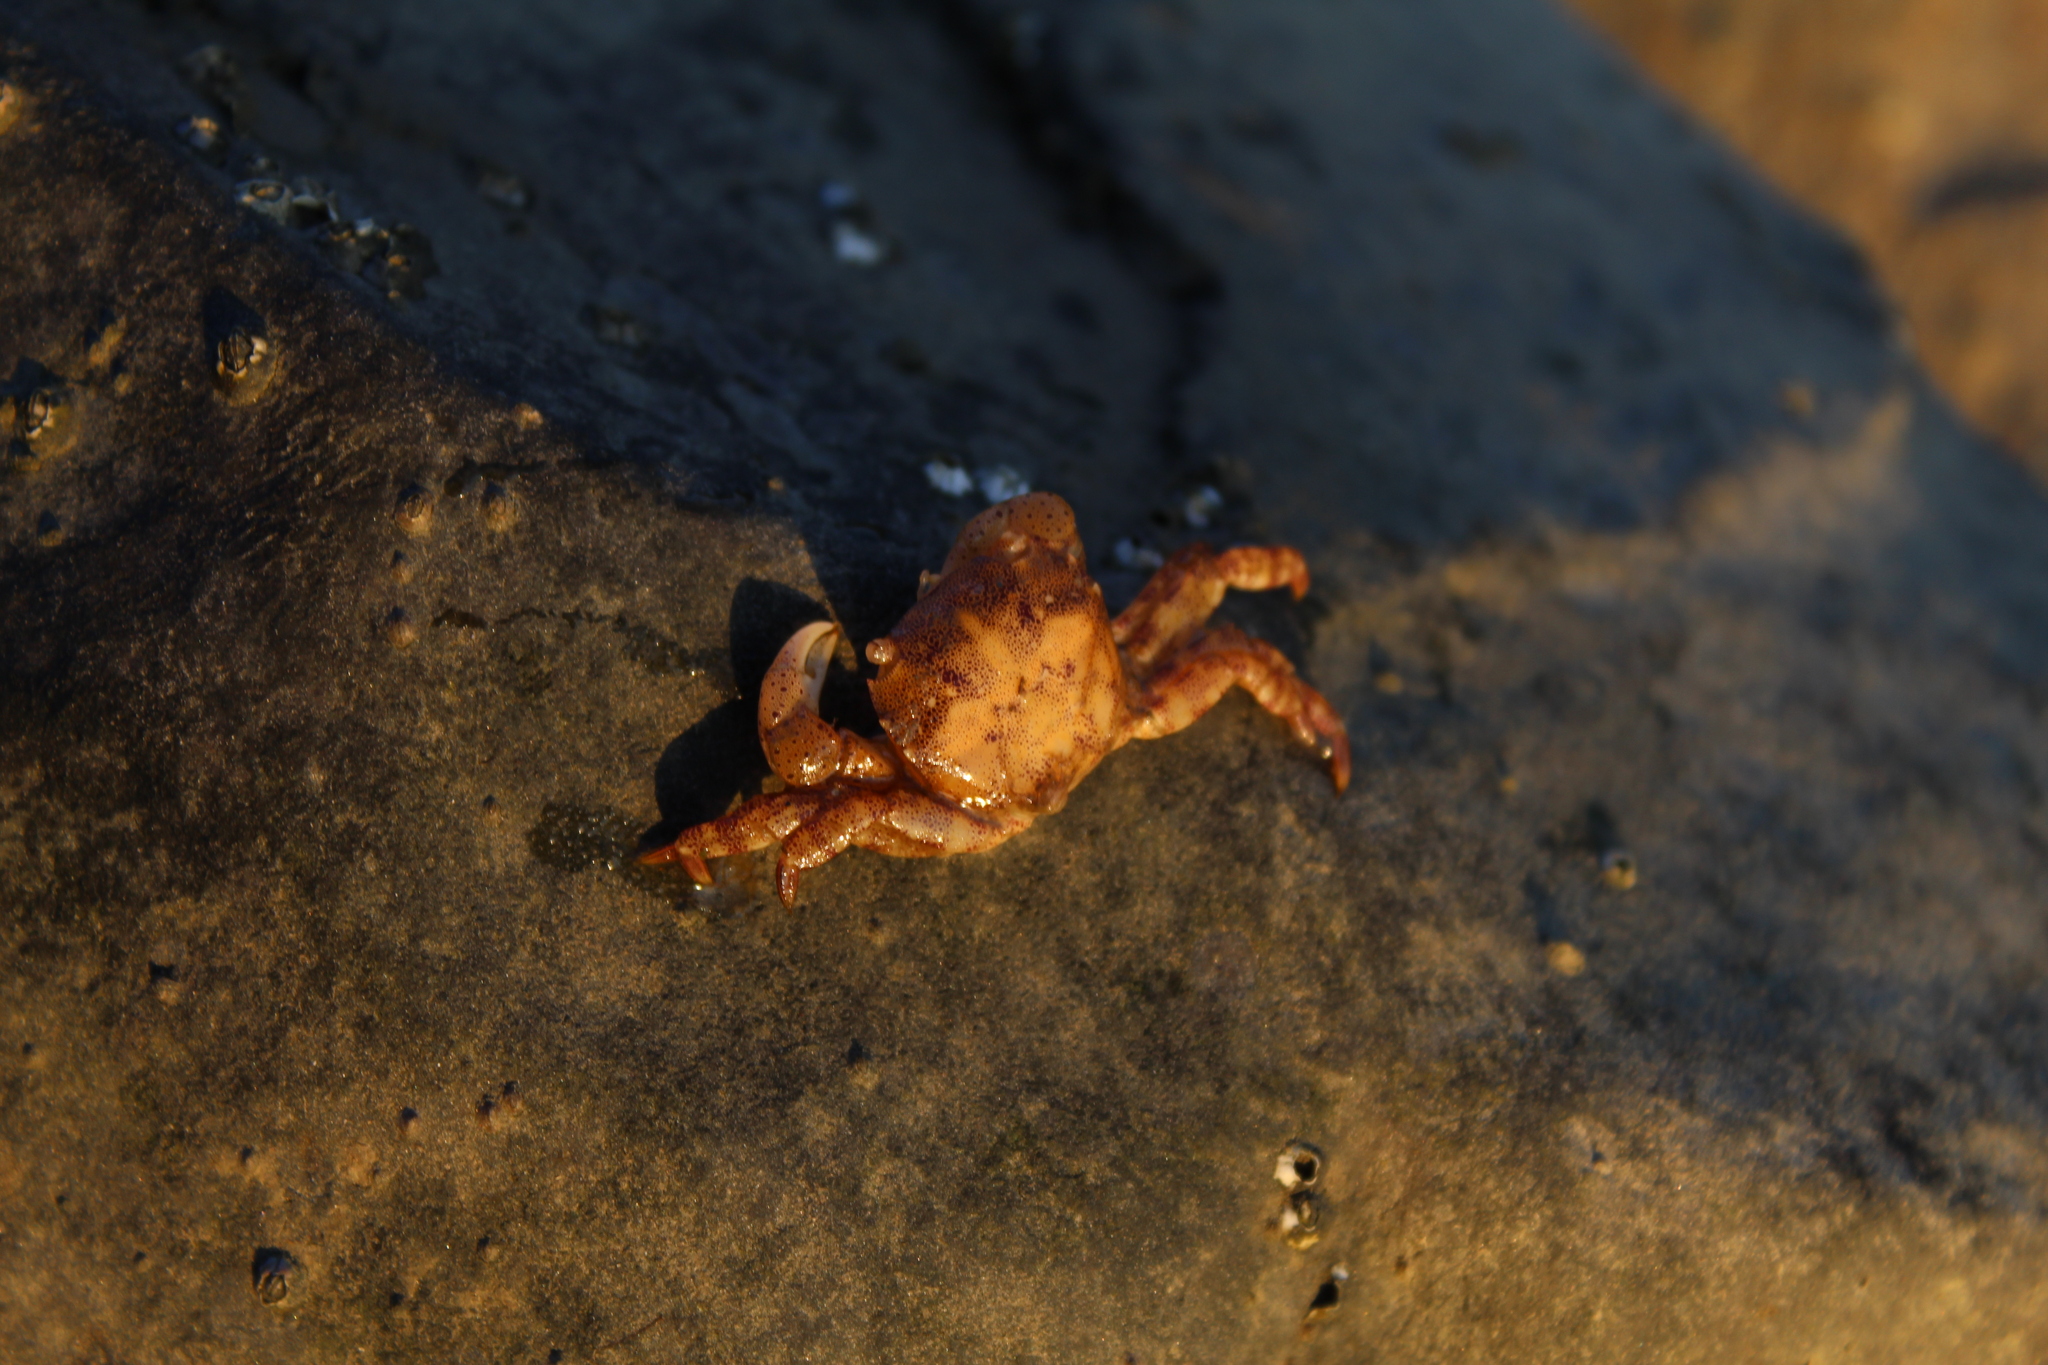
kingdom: Animalia
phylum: Arthropoda
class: Malacostraca
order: Decapoda
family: Varunidae
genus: Hemigrapsus
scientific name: Hemigrapsus sanguineus
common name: Asian shore crab
